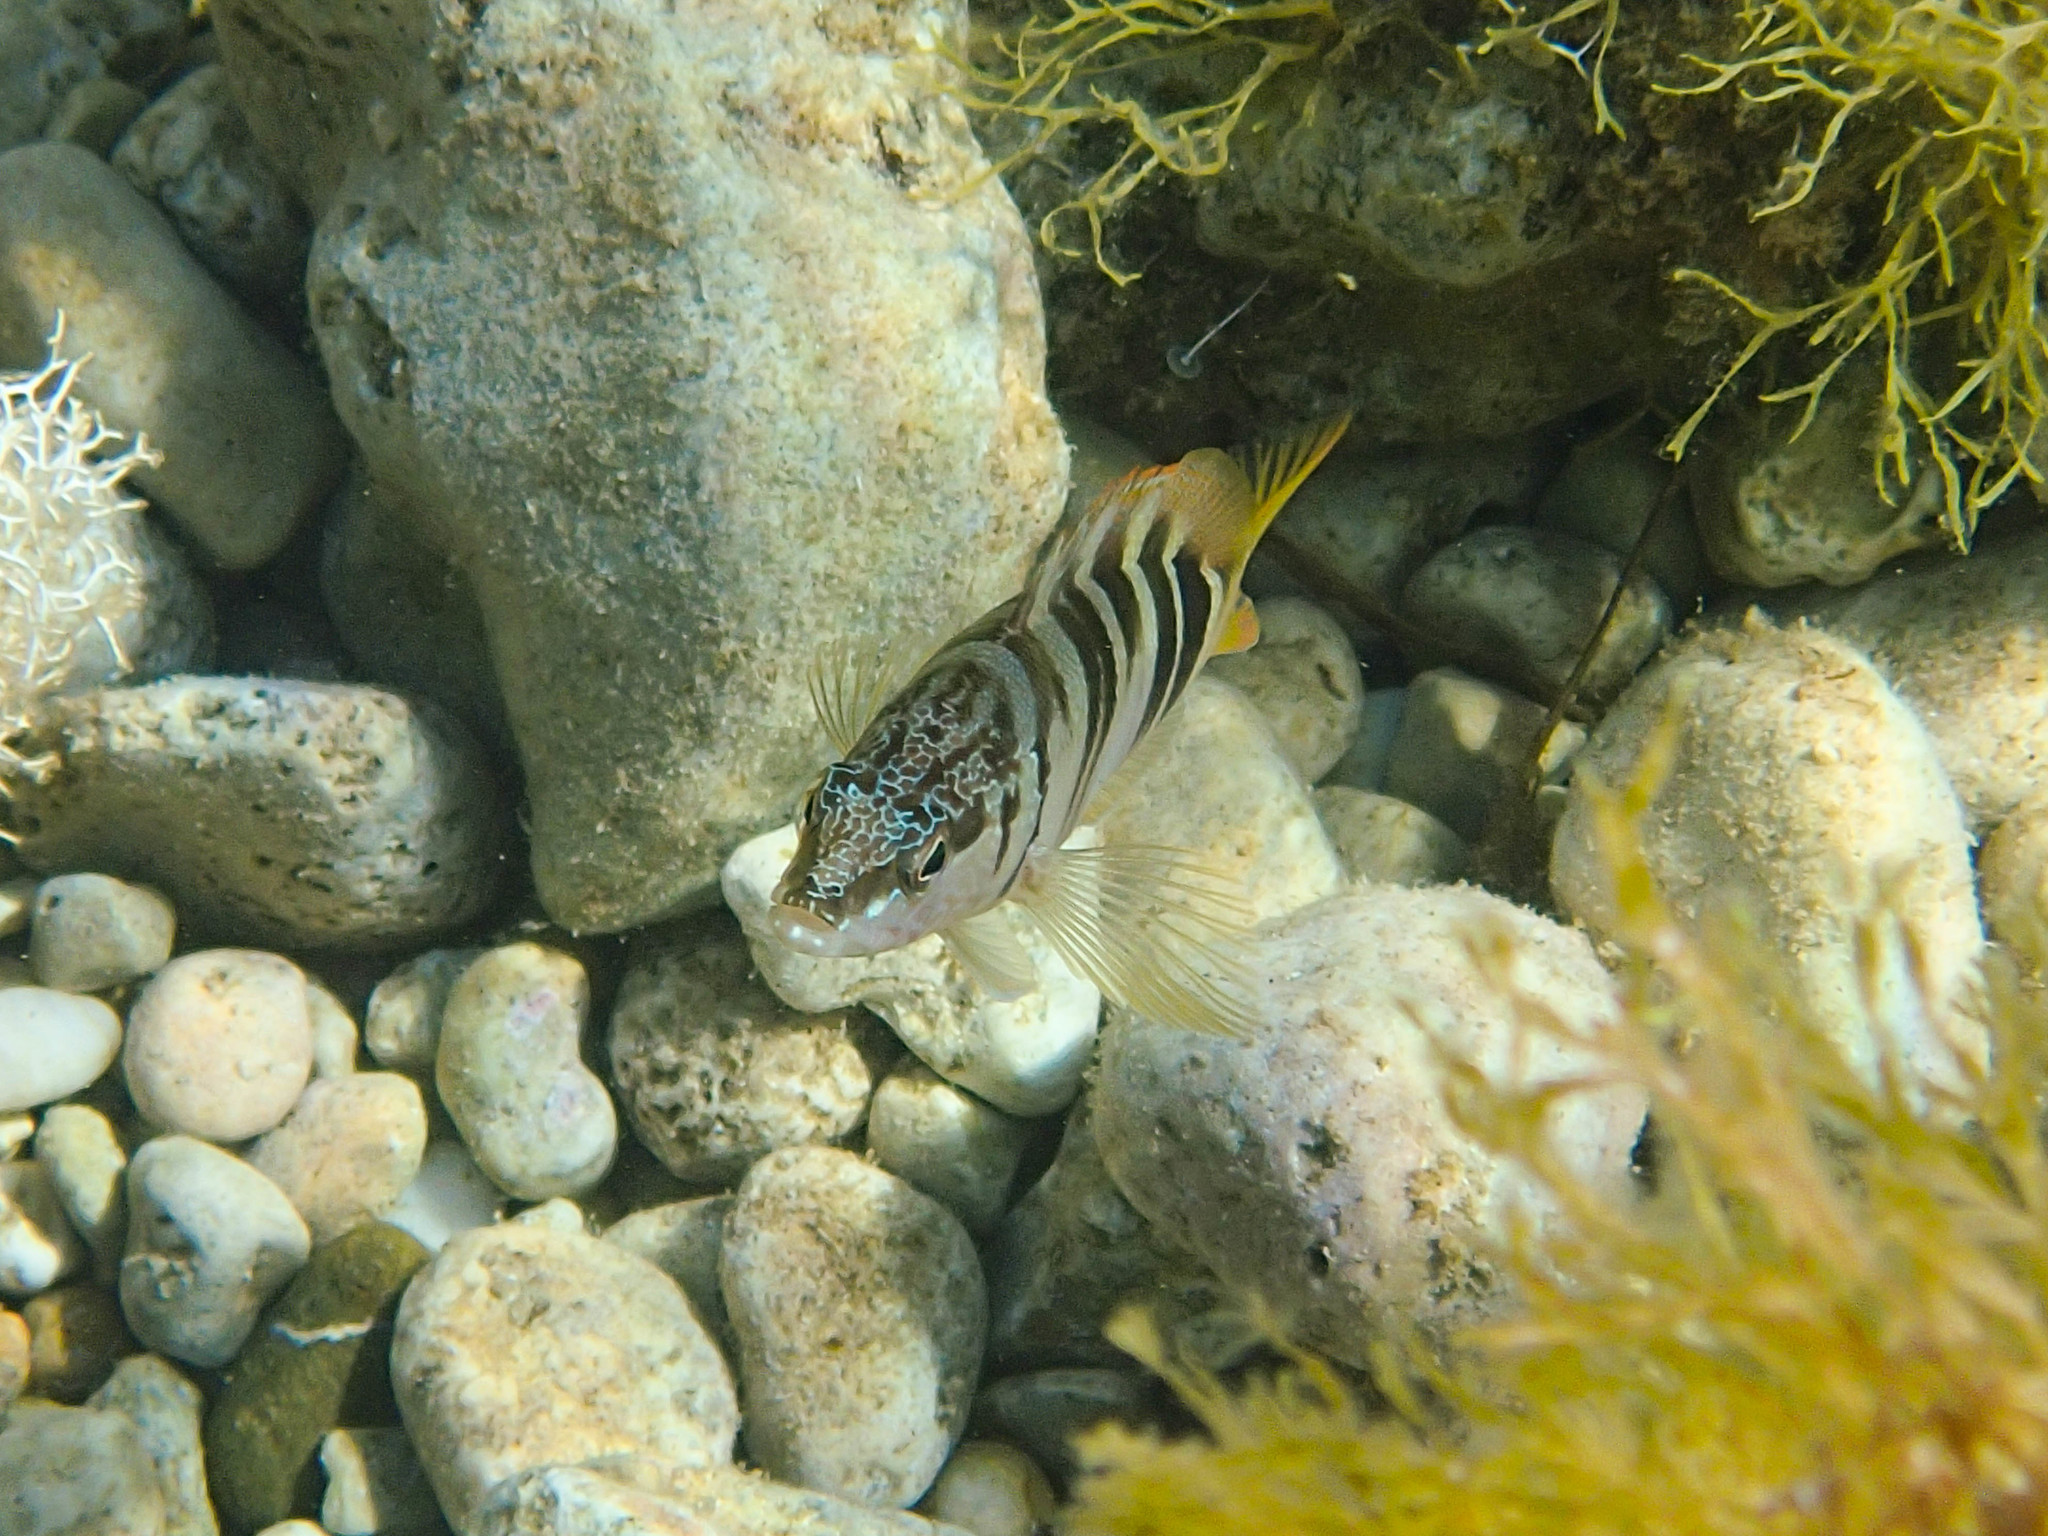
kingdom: Animalia
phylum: Chordata
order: Perciformes
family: Serranidae
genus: Serranus
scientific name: Serranus scriba
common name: Painted comber
